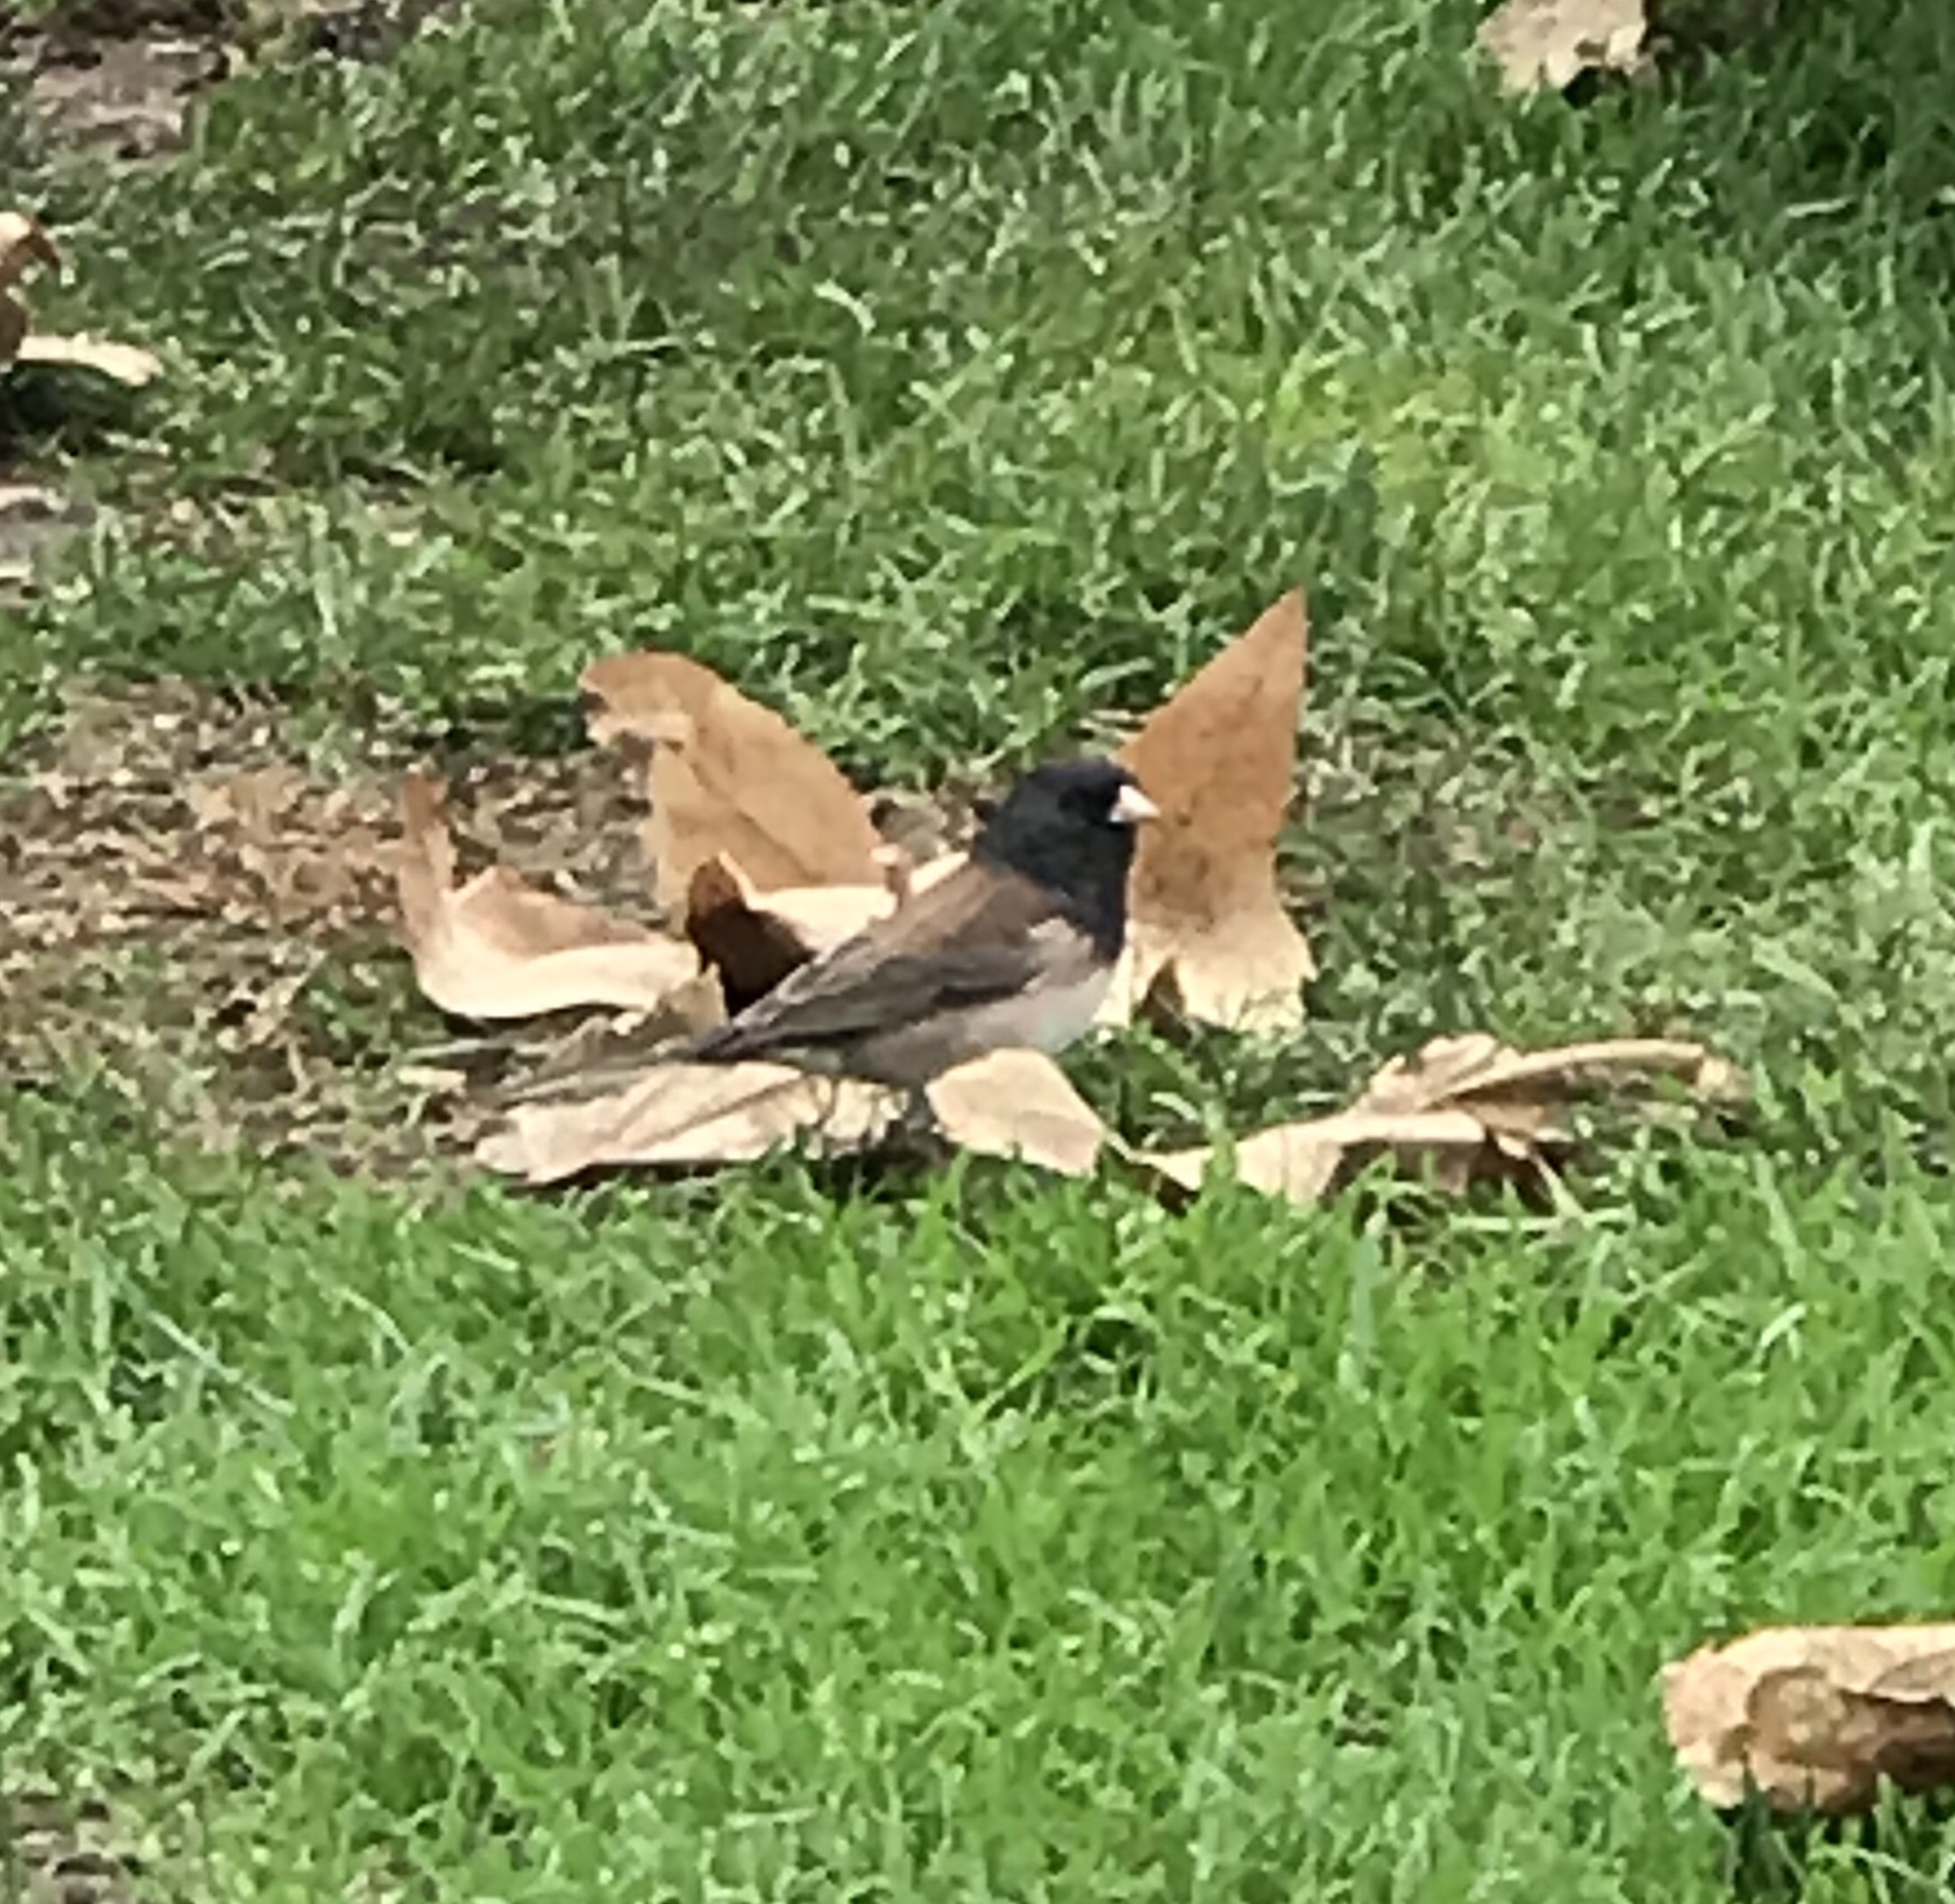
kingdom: Animalia
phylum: Chordata
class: Aves
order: Passeriformes
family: Passerellidae
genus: Junco
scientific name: Junco hyemalis
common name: Dark-eyed junco
